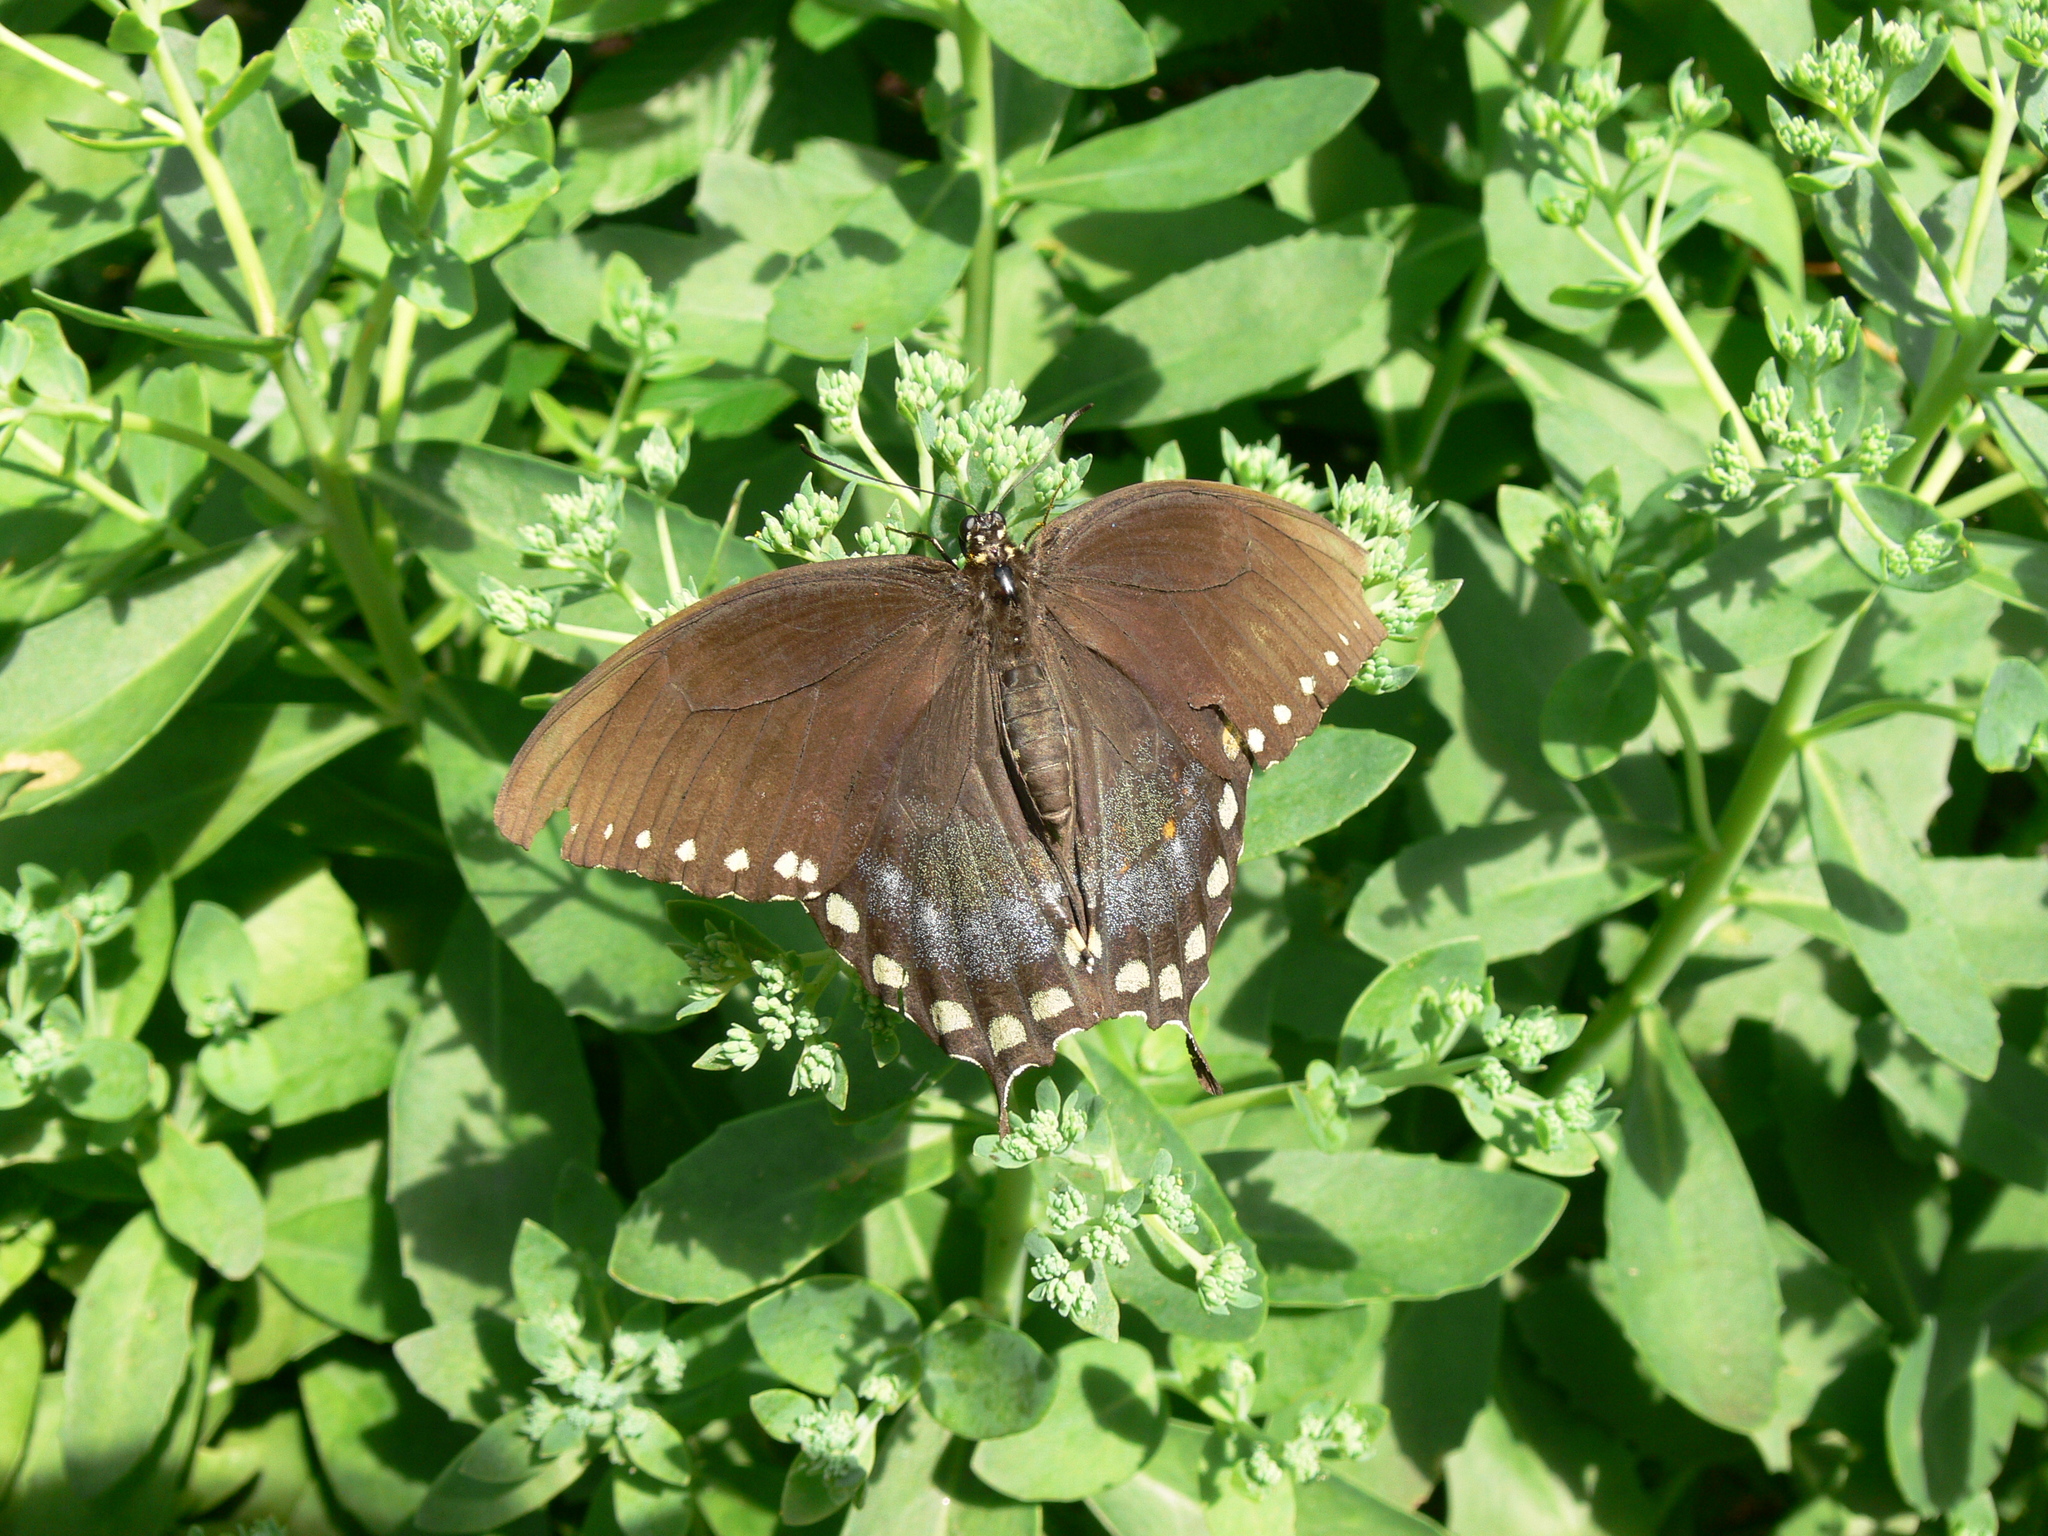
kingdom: Animalia
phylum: Arthropoda
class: Insecta
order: Lepidoptera
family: Papilionidae
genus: Papilio
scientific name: Papilio troilus
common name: Spicebush swallowtail
